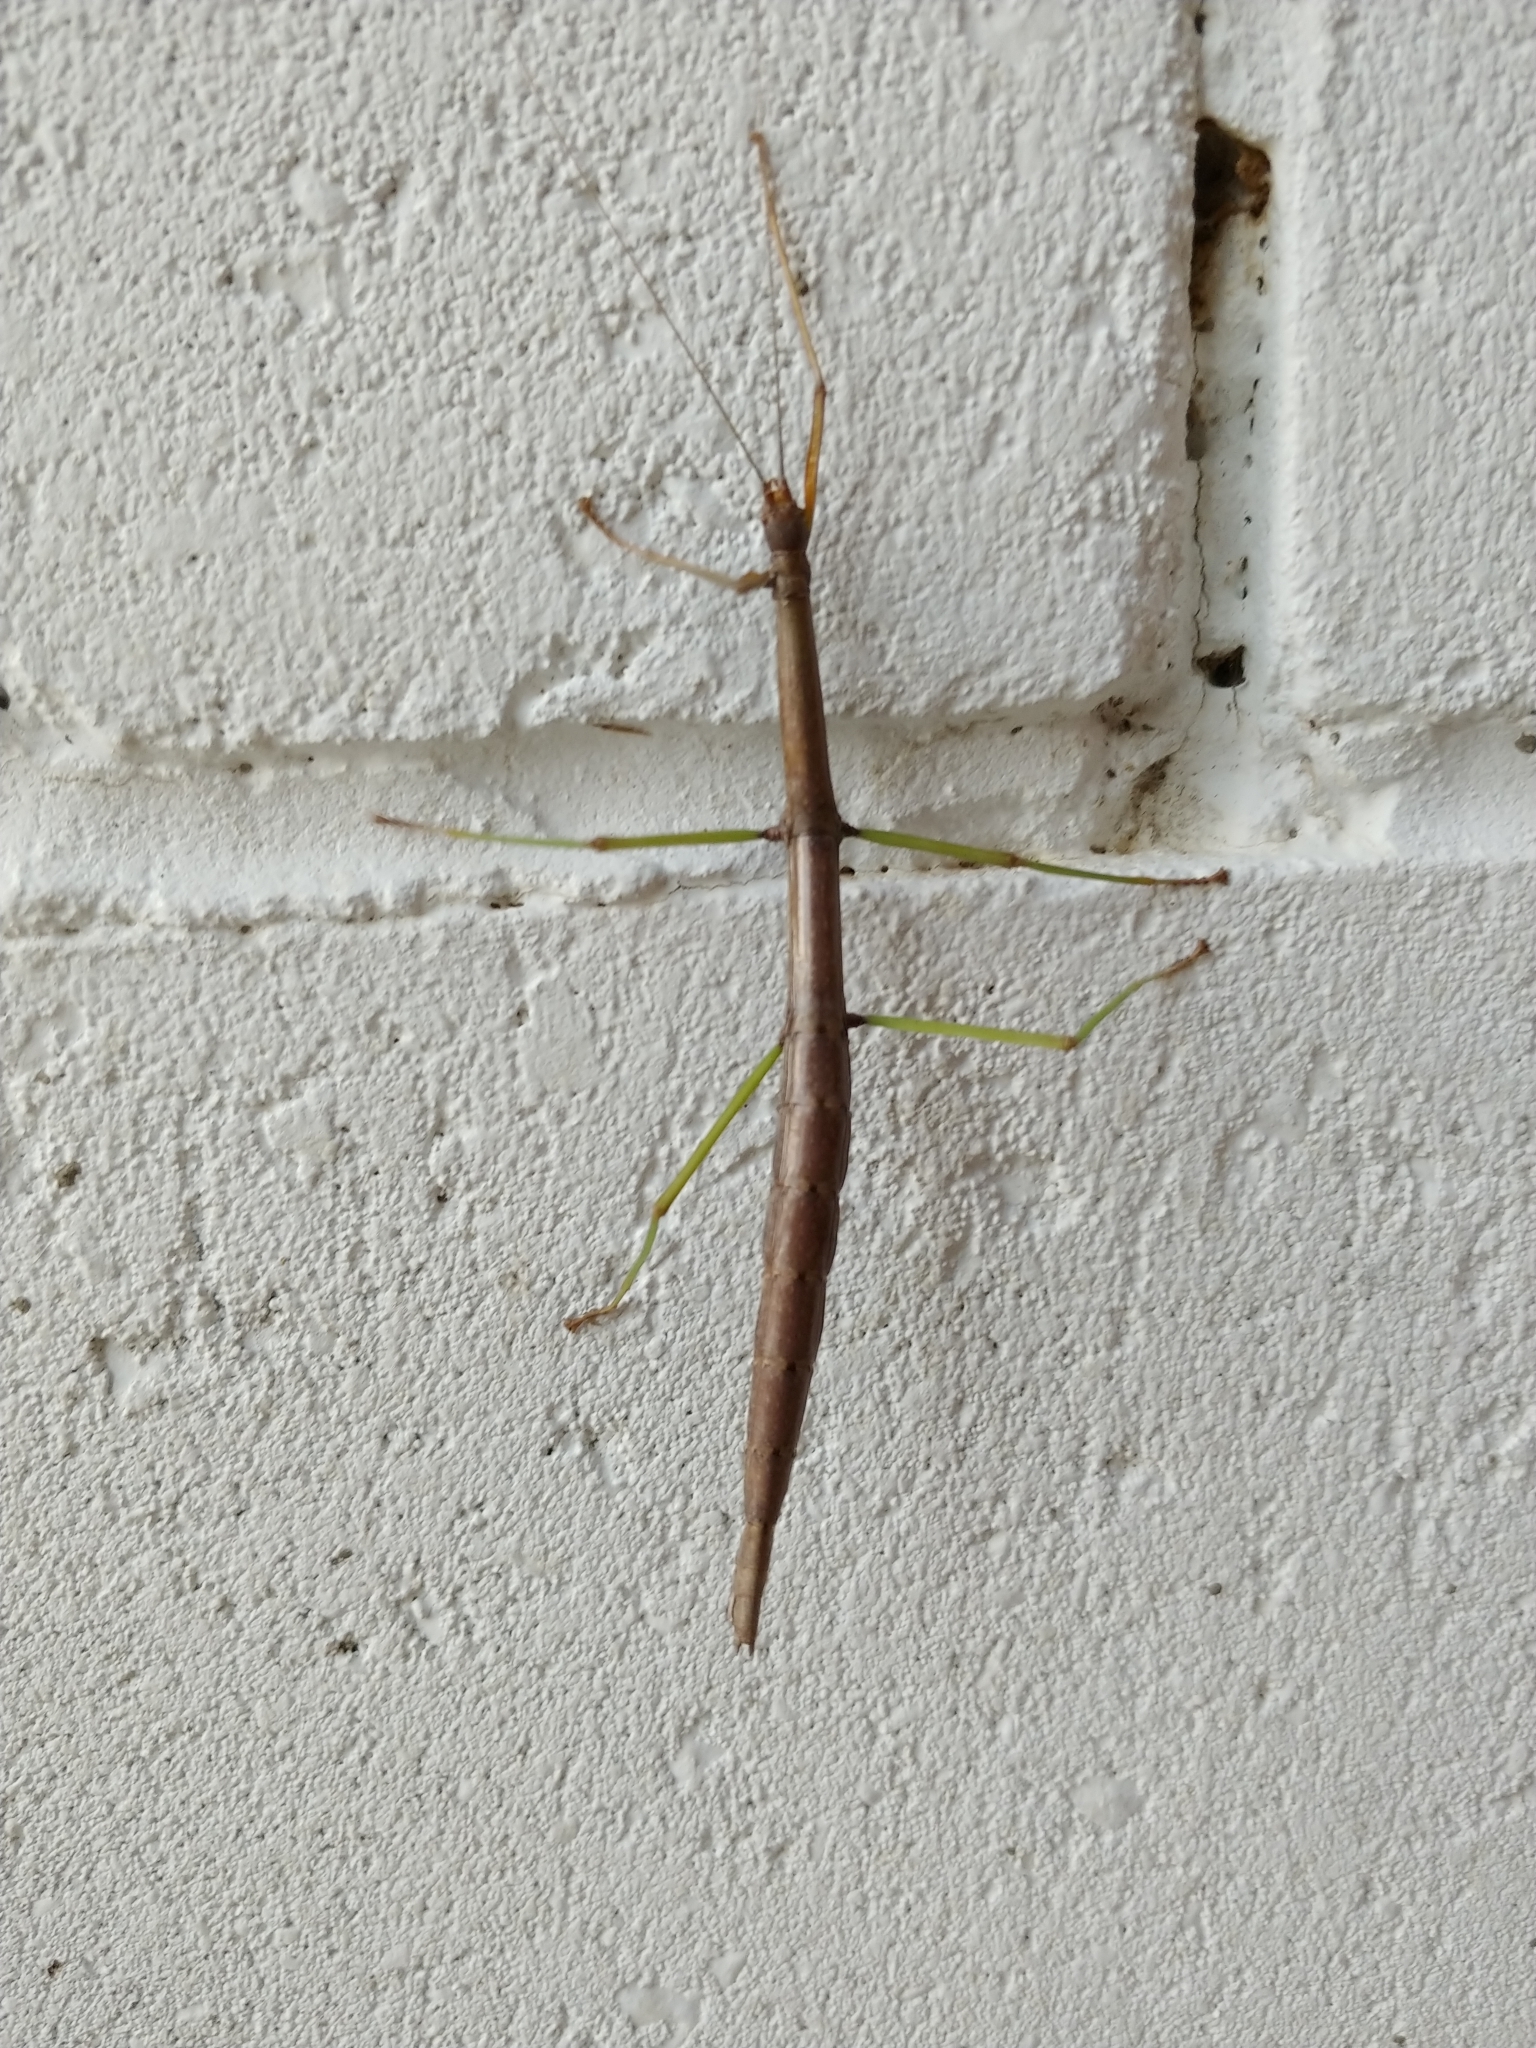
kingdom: Animalia
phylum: Arthropoda
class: Insecta
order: Phasmida
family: Diapheromeridae
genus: Diapheromera
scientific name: Diapheromera femorata
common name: Common american walkingstick
